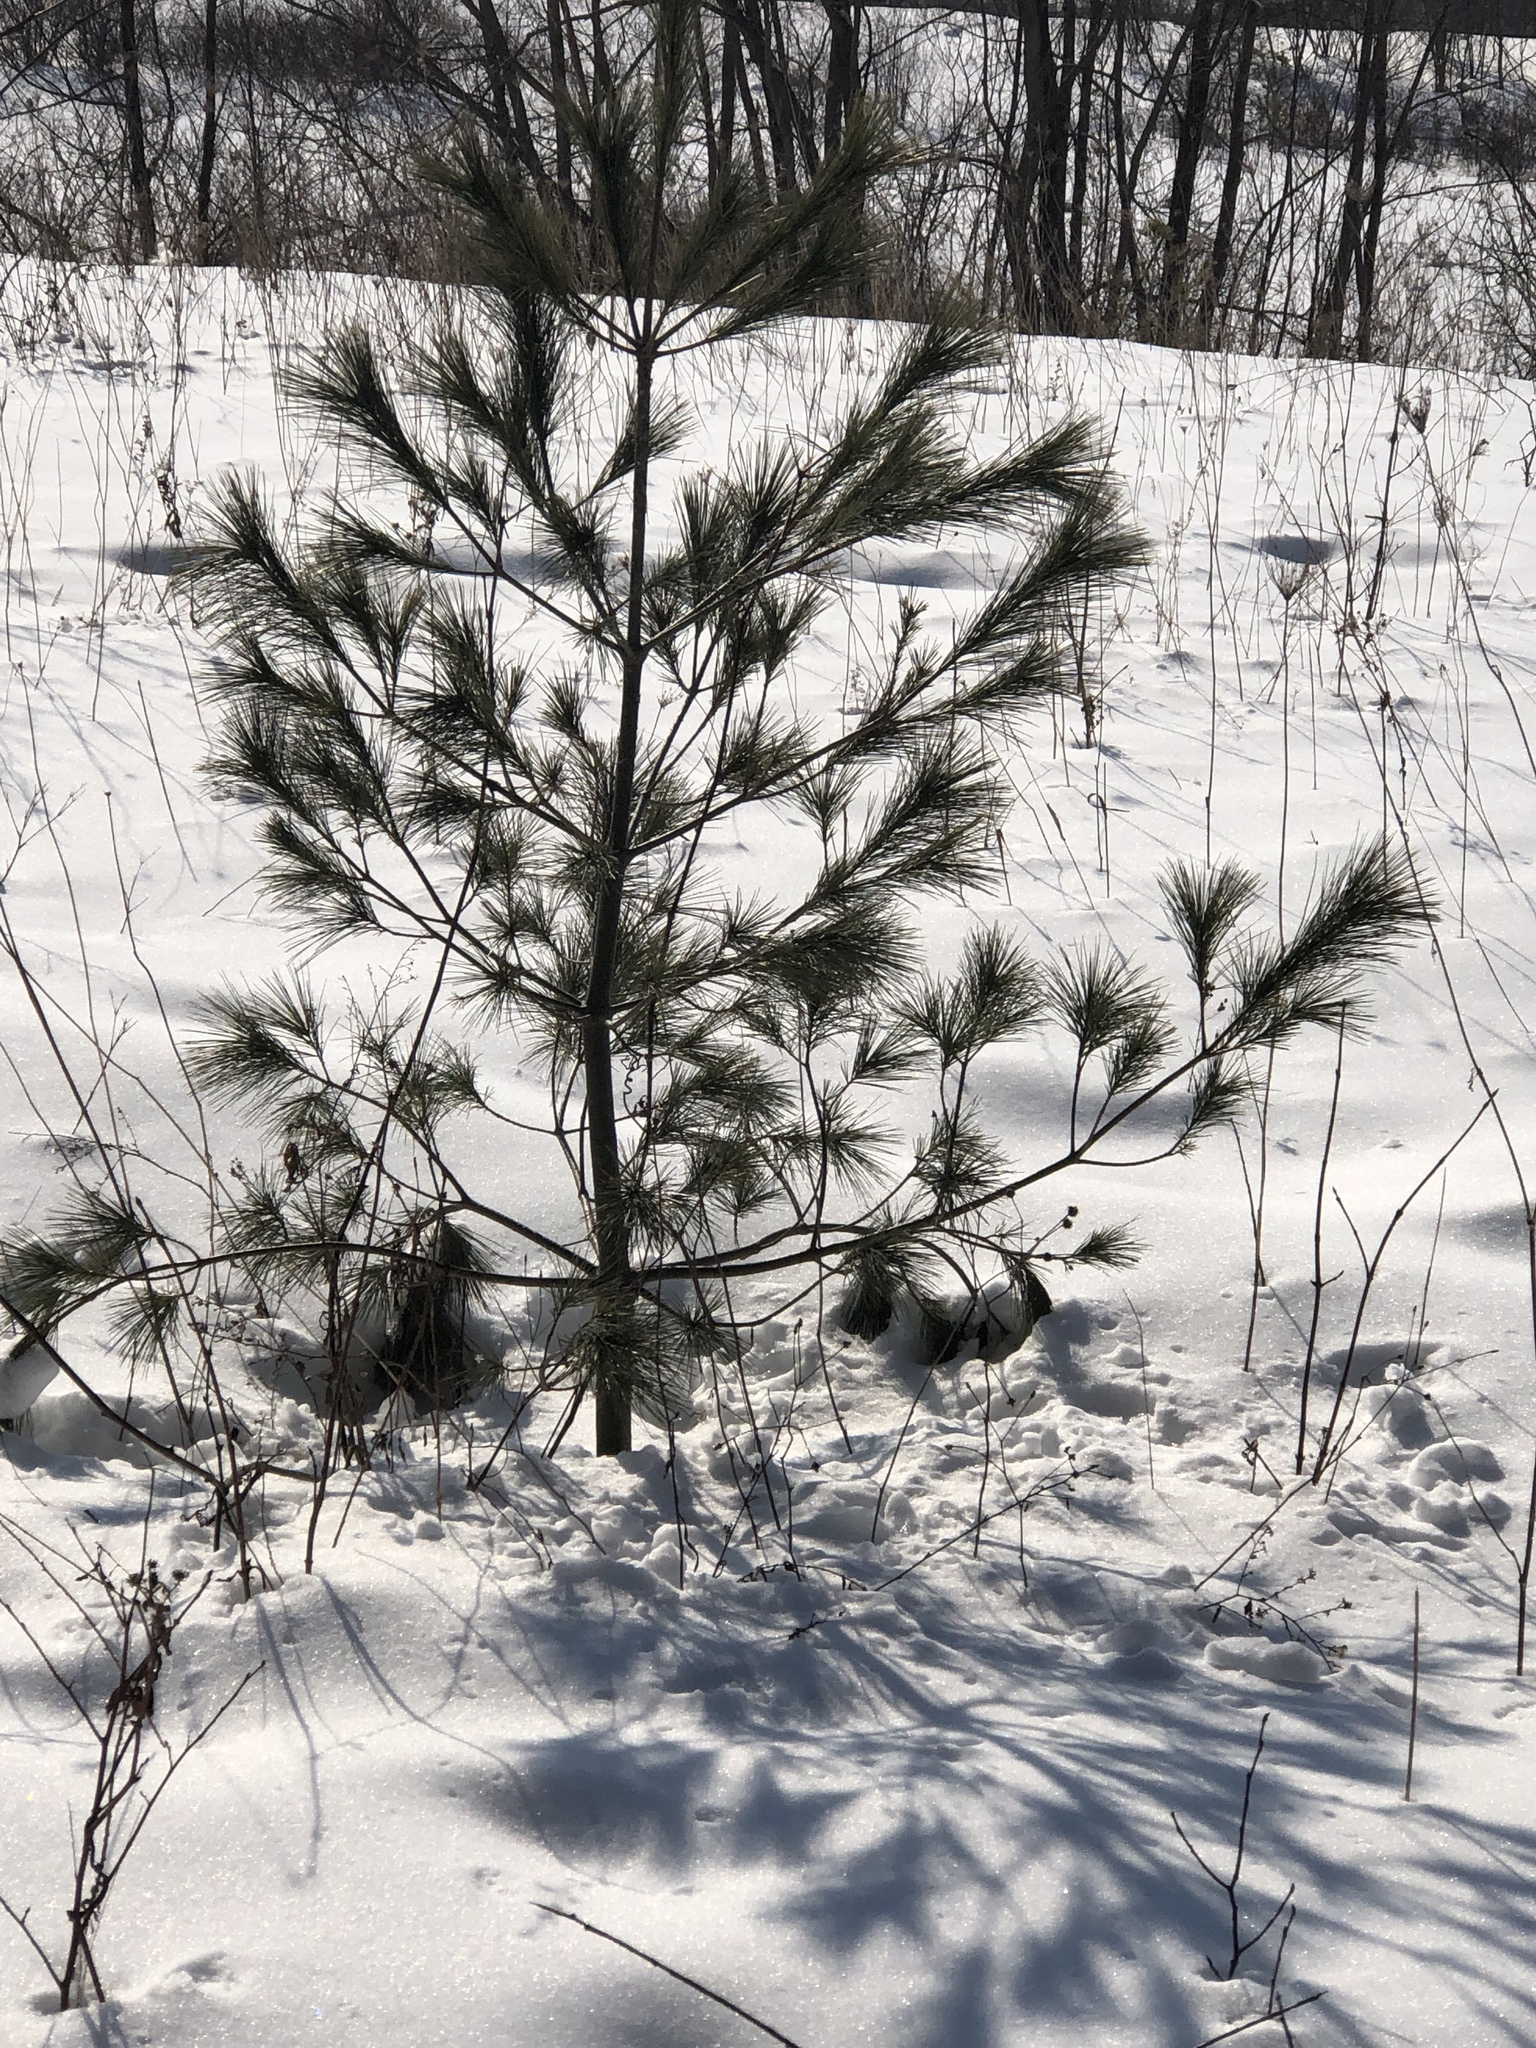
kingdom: Plantae
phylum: Tracheophyta
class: Pinopsida
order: Pinales
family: Pinaceae
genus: Pinus
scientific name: Pinus strobus
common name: Weymouth pine
